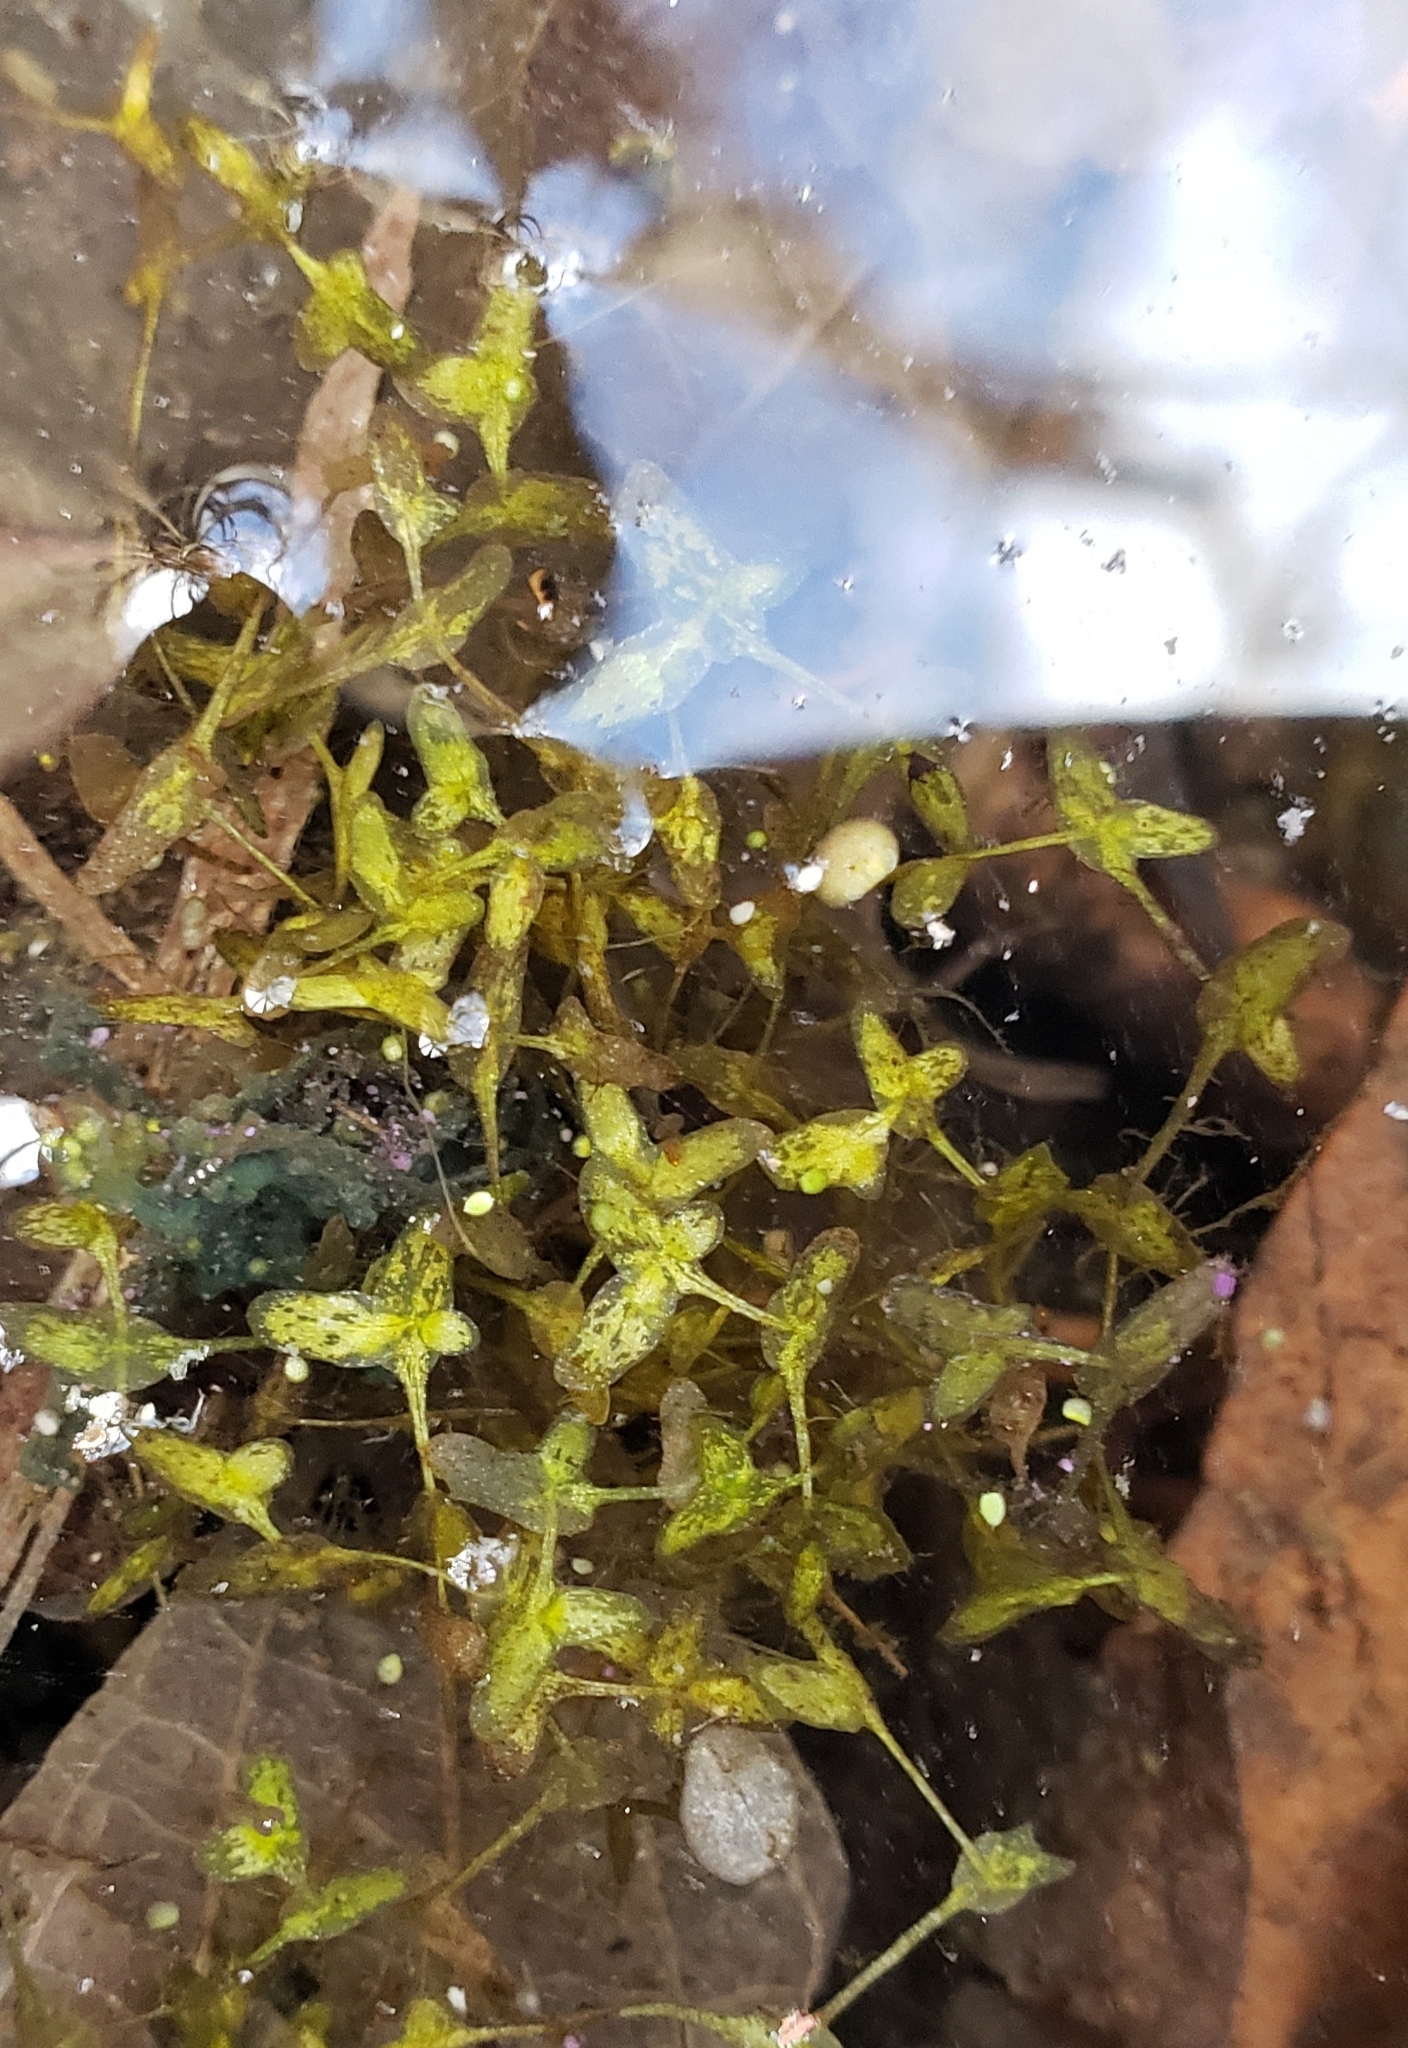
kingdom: Plantae
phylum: Tracheophyta
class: Liliopsida
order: Alismatales
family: Araceae
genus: Lemna
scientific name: Lemna trisulca
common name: Ivy-leaved duckweed
